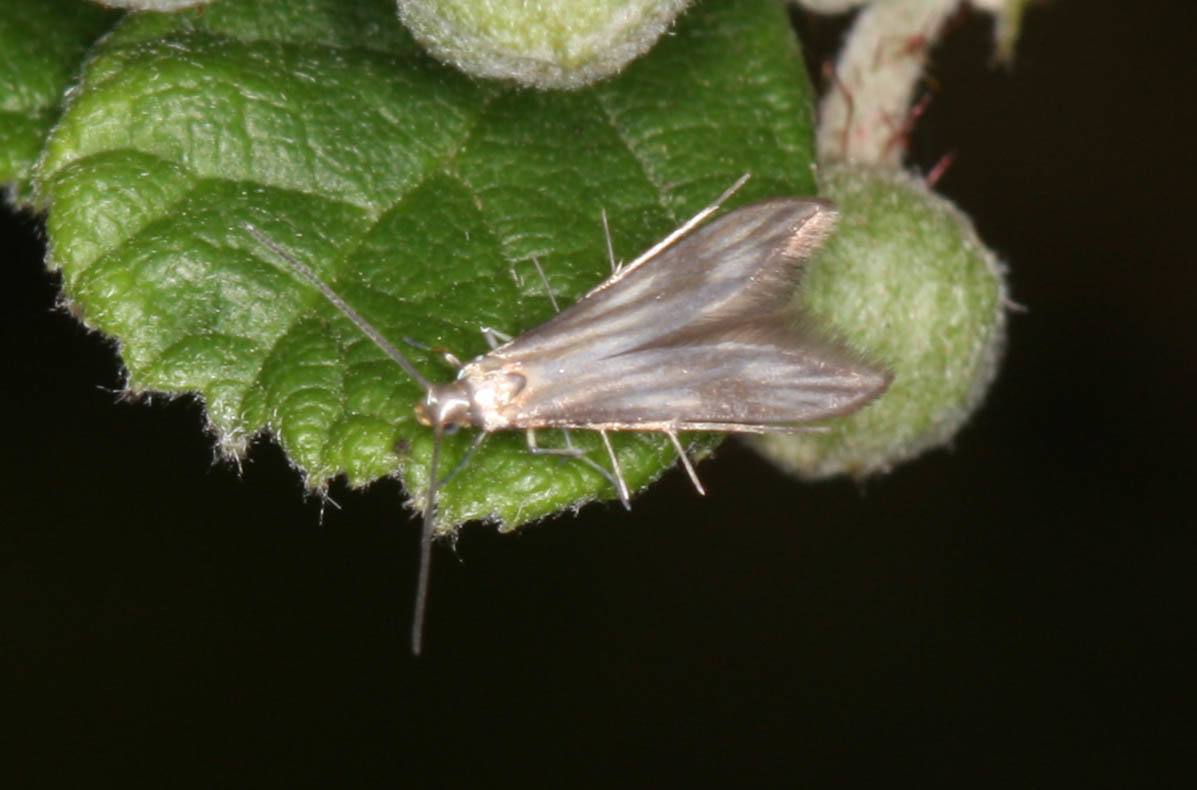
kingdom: Animalia
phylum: Arthropoda
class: Insecta
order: Lepidoptera
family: Schreckensteiniidae
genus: Schreckensteinia
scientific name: Schreckensteinia festaliella
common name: Blackberry skeletonizer
